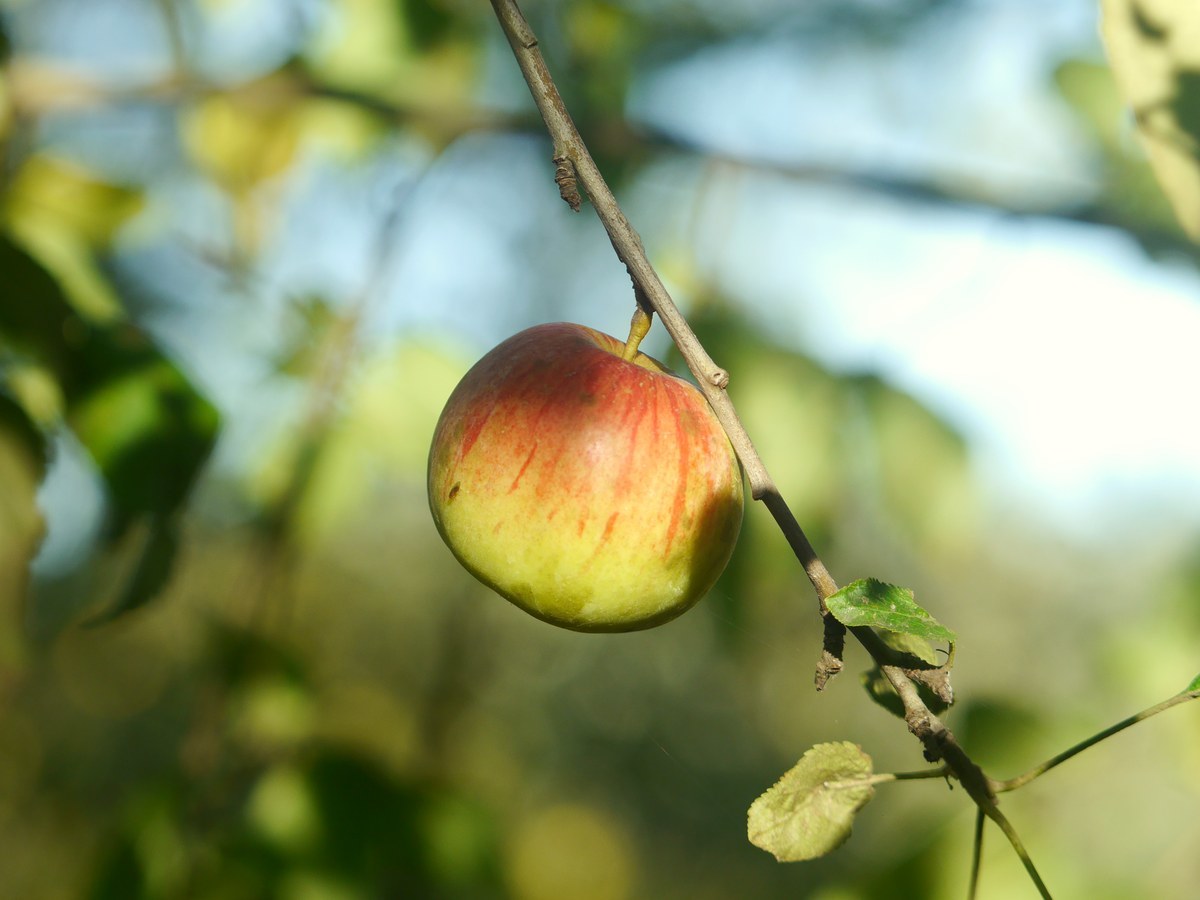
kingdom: Plantae
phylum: Tracheophyta
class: Magnoliopsida
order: Rosales
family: Rosaceae
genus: Malus
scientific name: Malus domestica
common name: Apple
